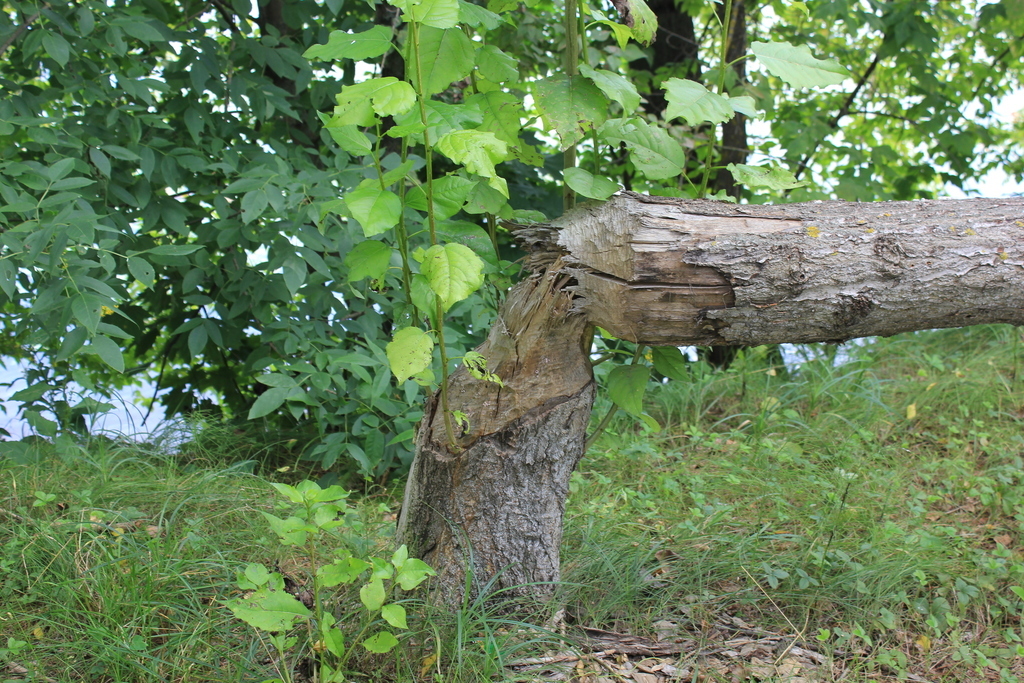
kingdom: Animalia
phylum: Chordata
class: Mammalia
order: Rodentia
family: Castoridae
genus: Castor
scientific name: Castor fiber
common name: Eurasian beaver
